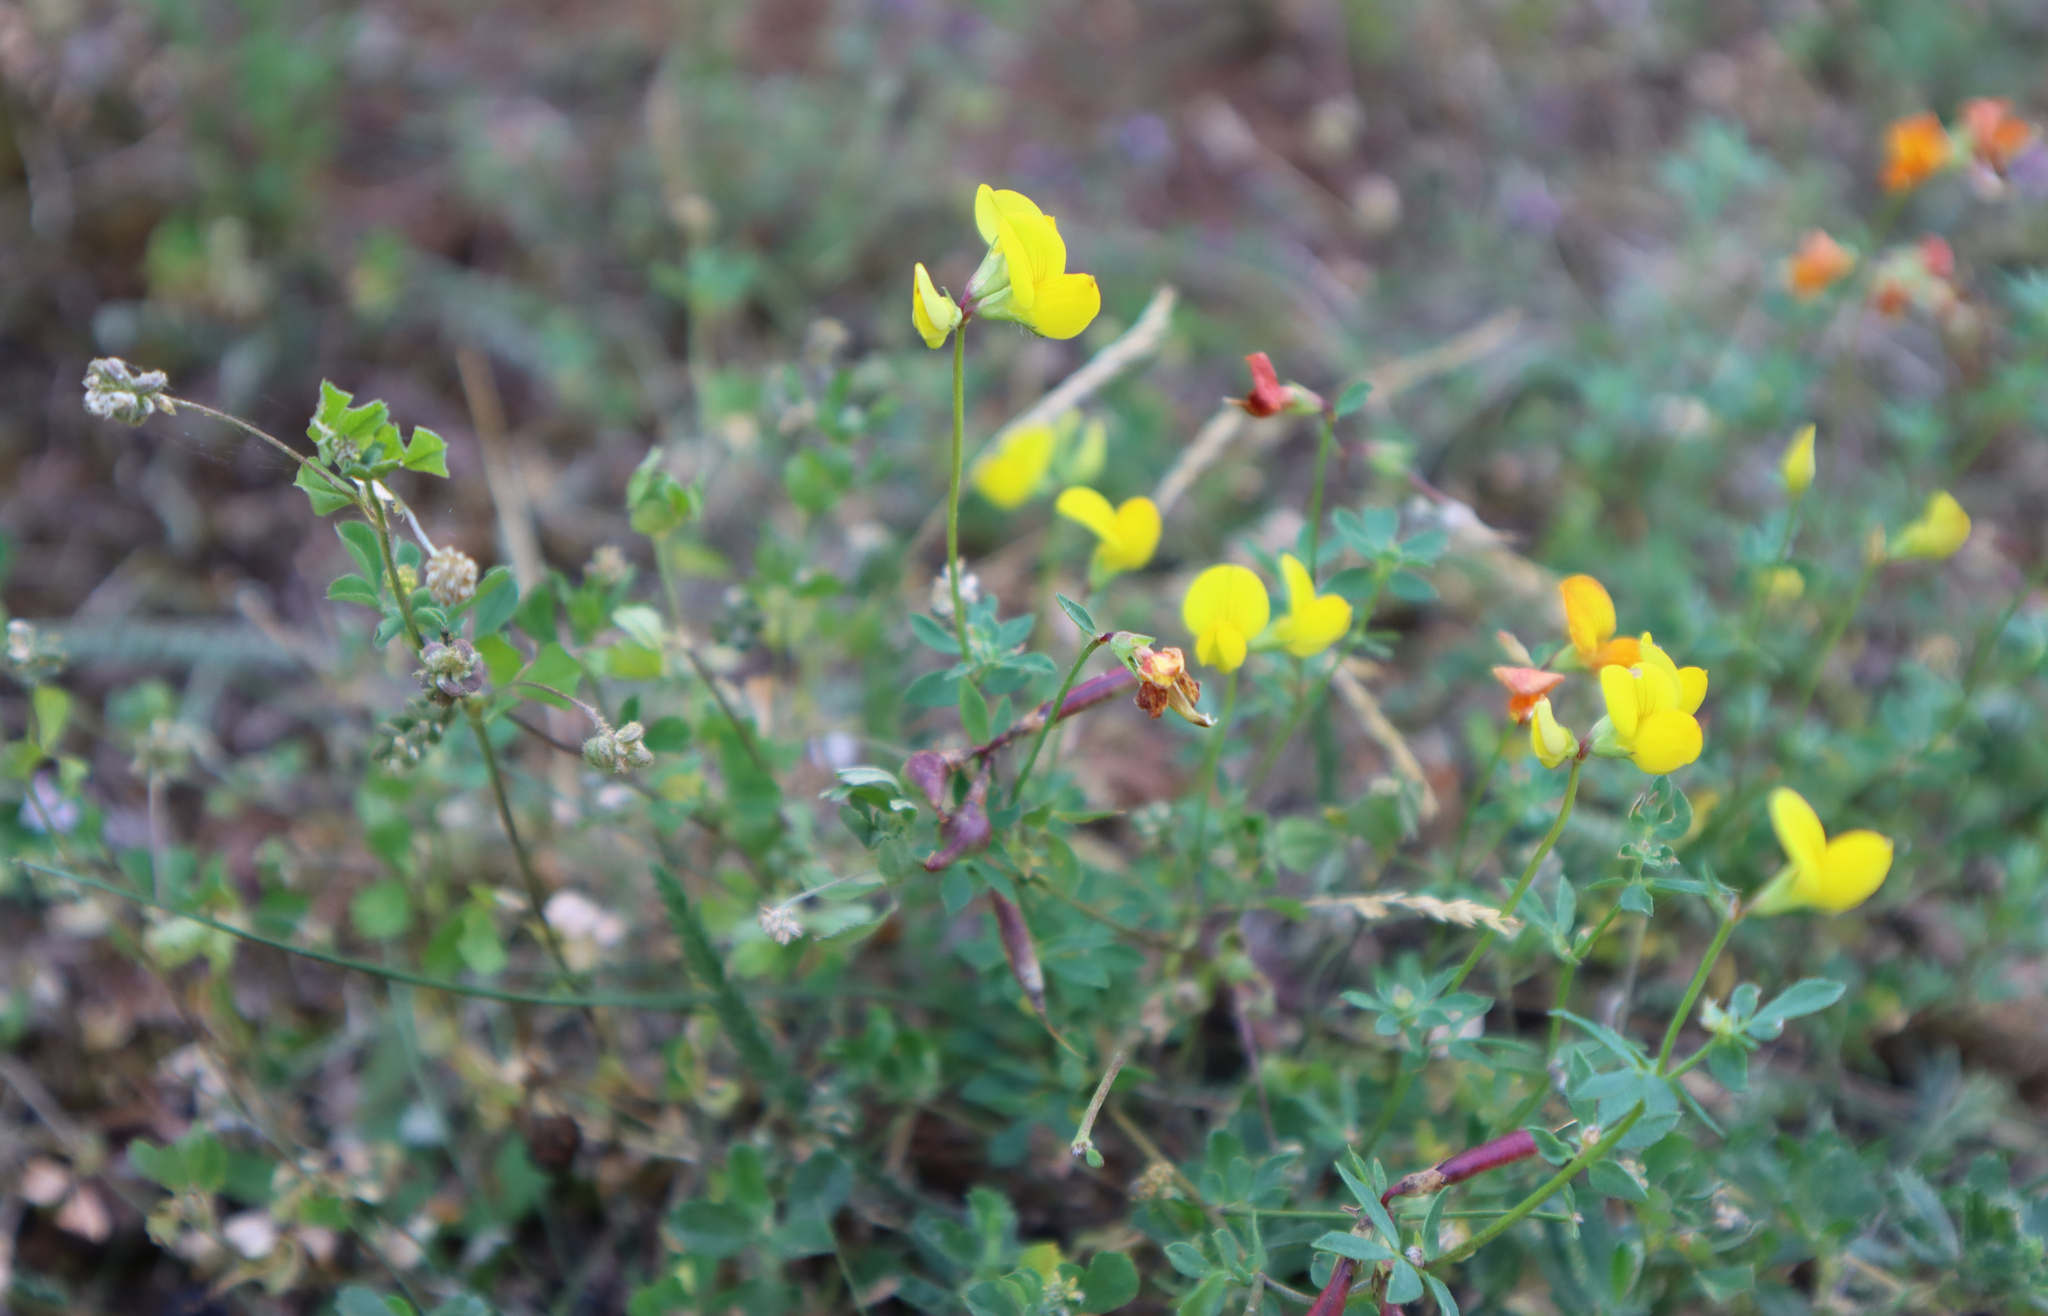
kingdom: Plantae
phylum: Tracheophyta
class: Magnoliopsida
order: Fabales
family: Fabaceae
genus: Lotus
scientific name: Lotus corniculatus
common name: Common bird's-foot-trefoil
